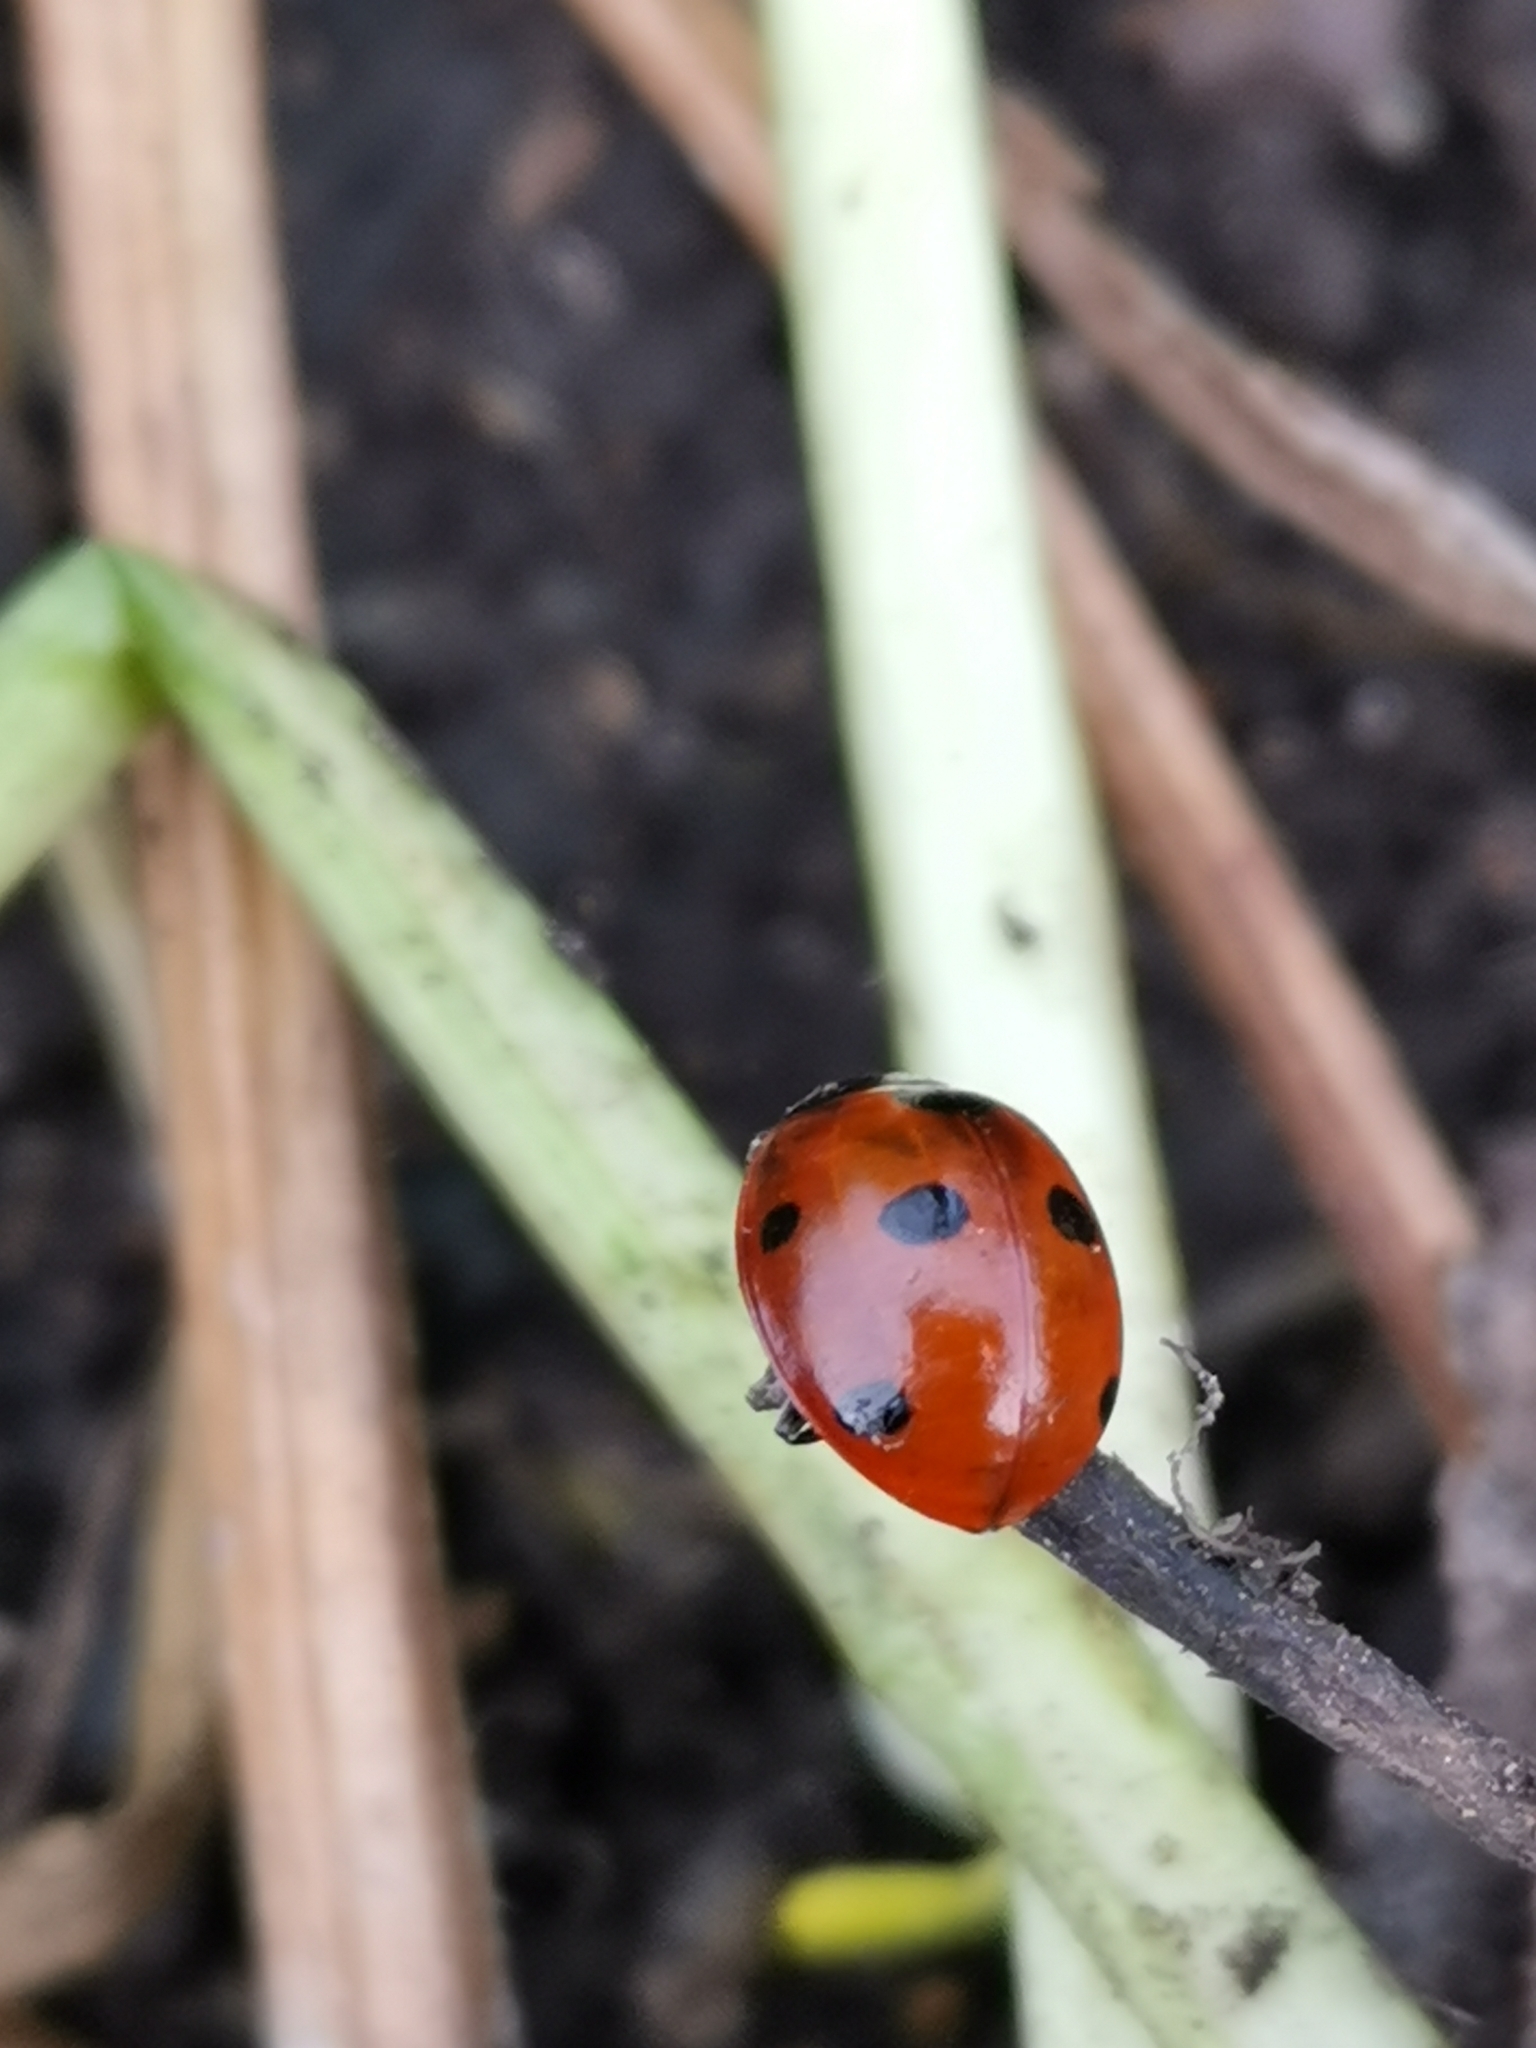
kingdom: Animalia
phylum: Arthropoda
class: Insecta
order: Coleoptera
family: Coccinellidae
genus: Coccinella
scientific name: Coccinella septempunctata
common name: Sevenspotted lady beetle
